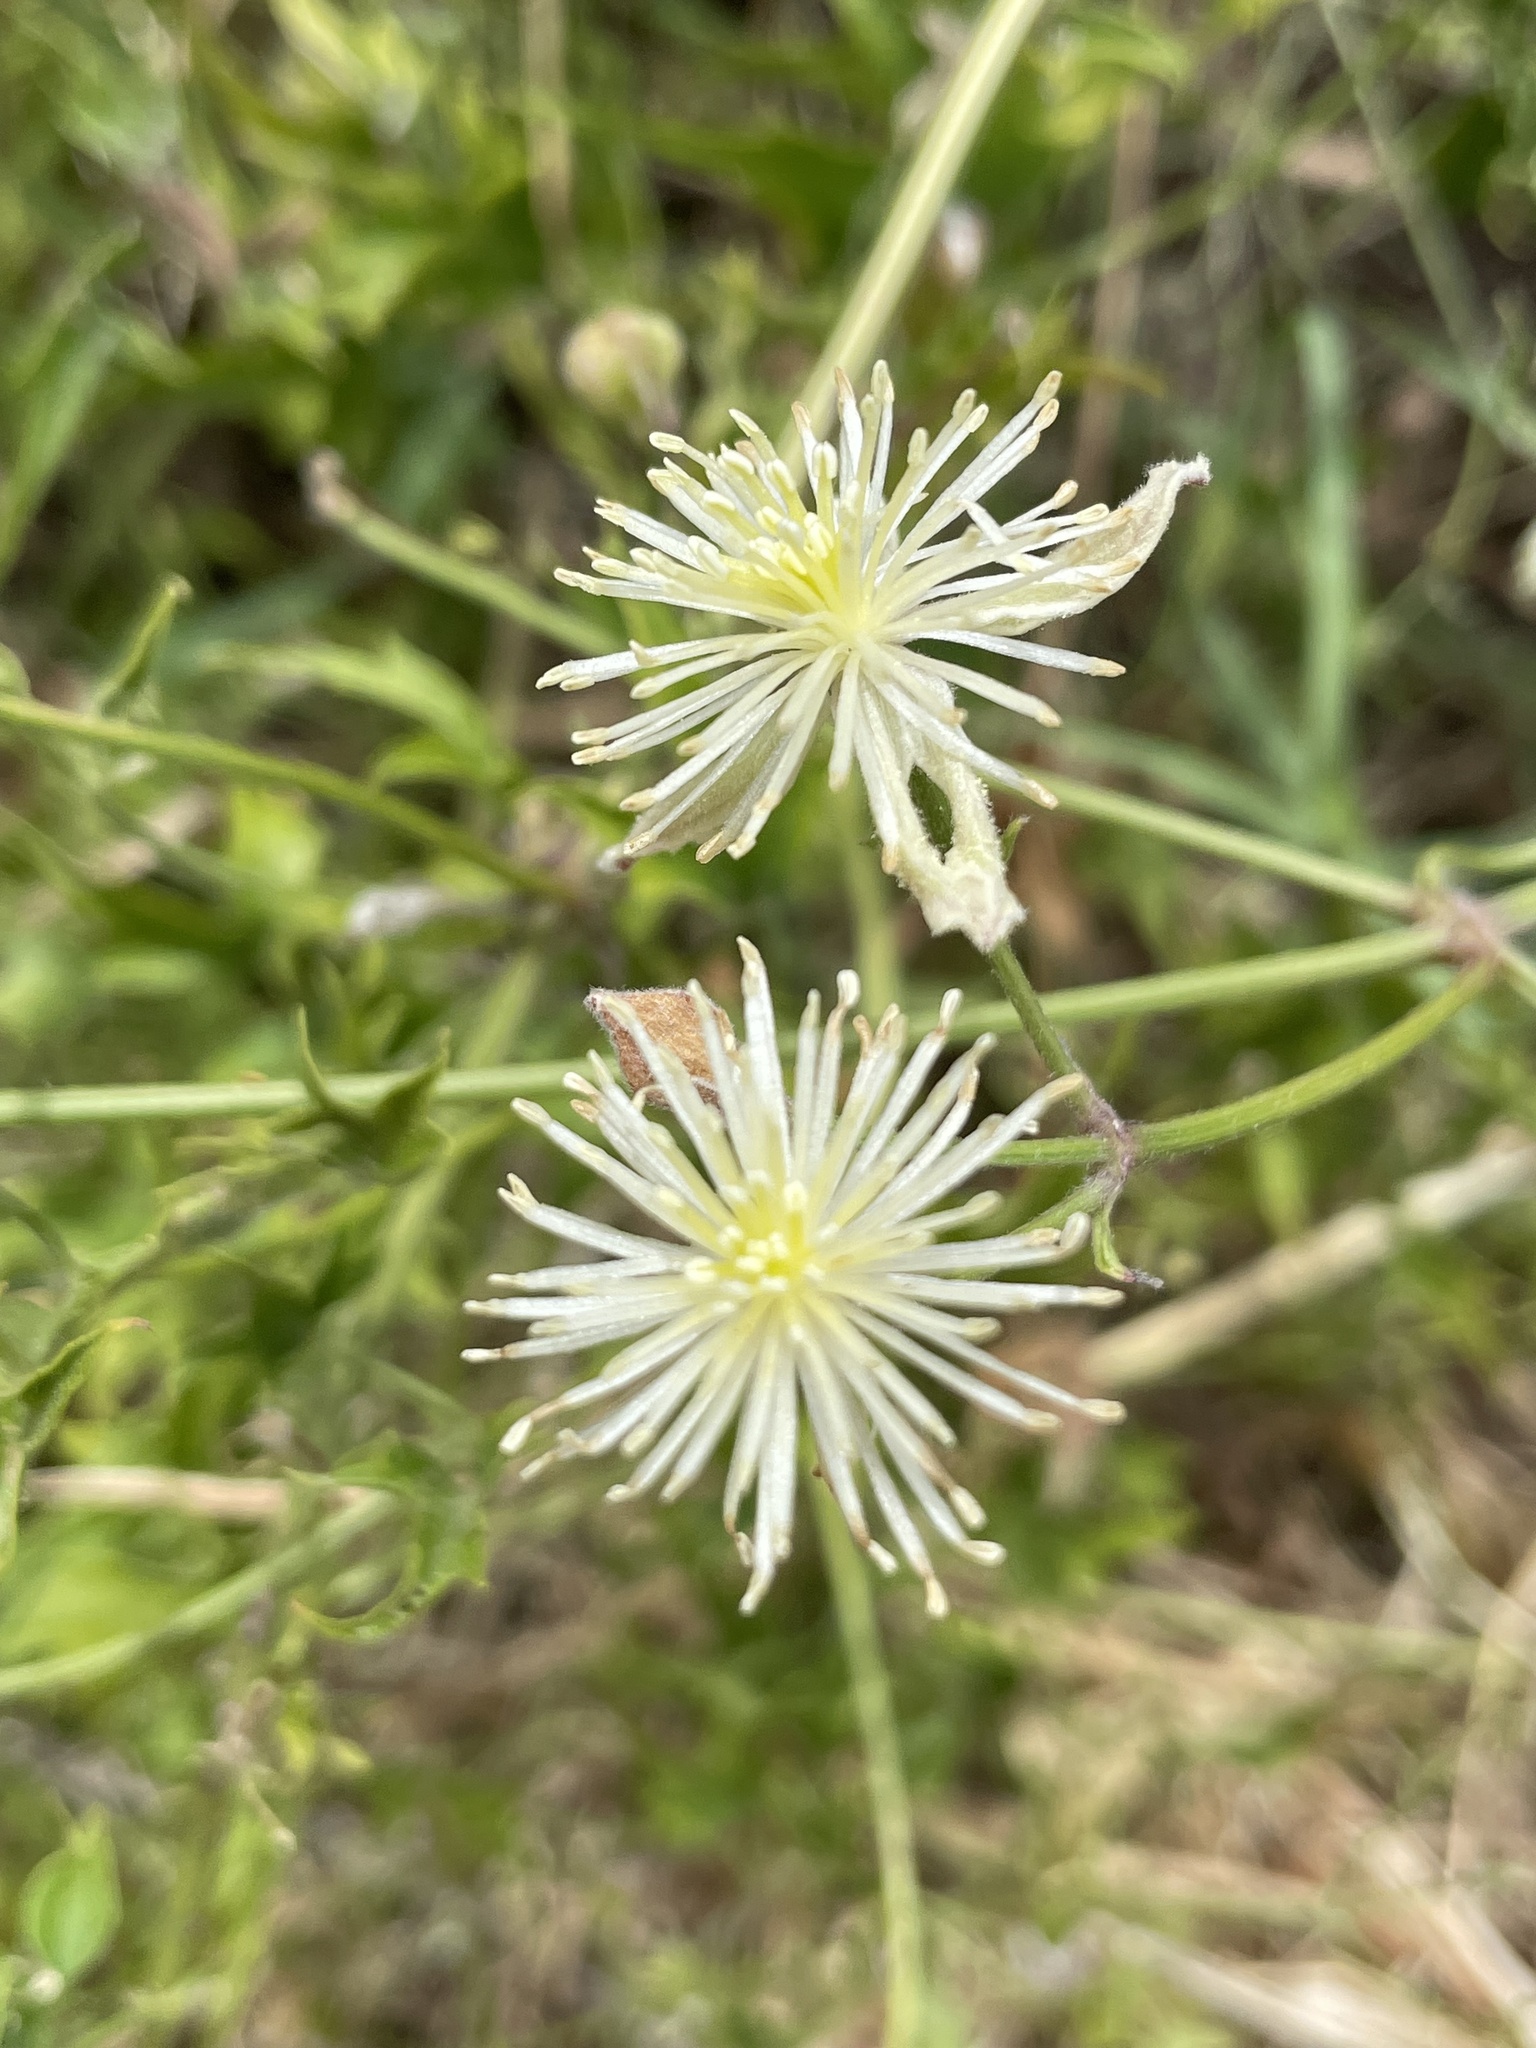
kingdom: Plantae
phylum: Tracheophyta
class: Magnoliopsida
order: Ranunculales
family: Ranunculaceae
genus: Clematis
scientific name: Clematis drummondii
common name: Texas virgin's bower
